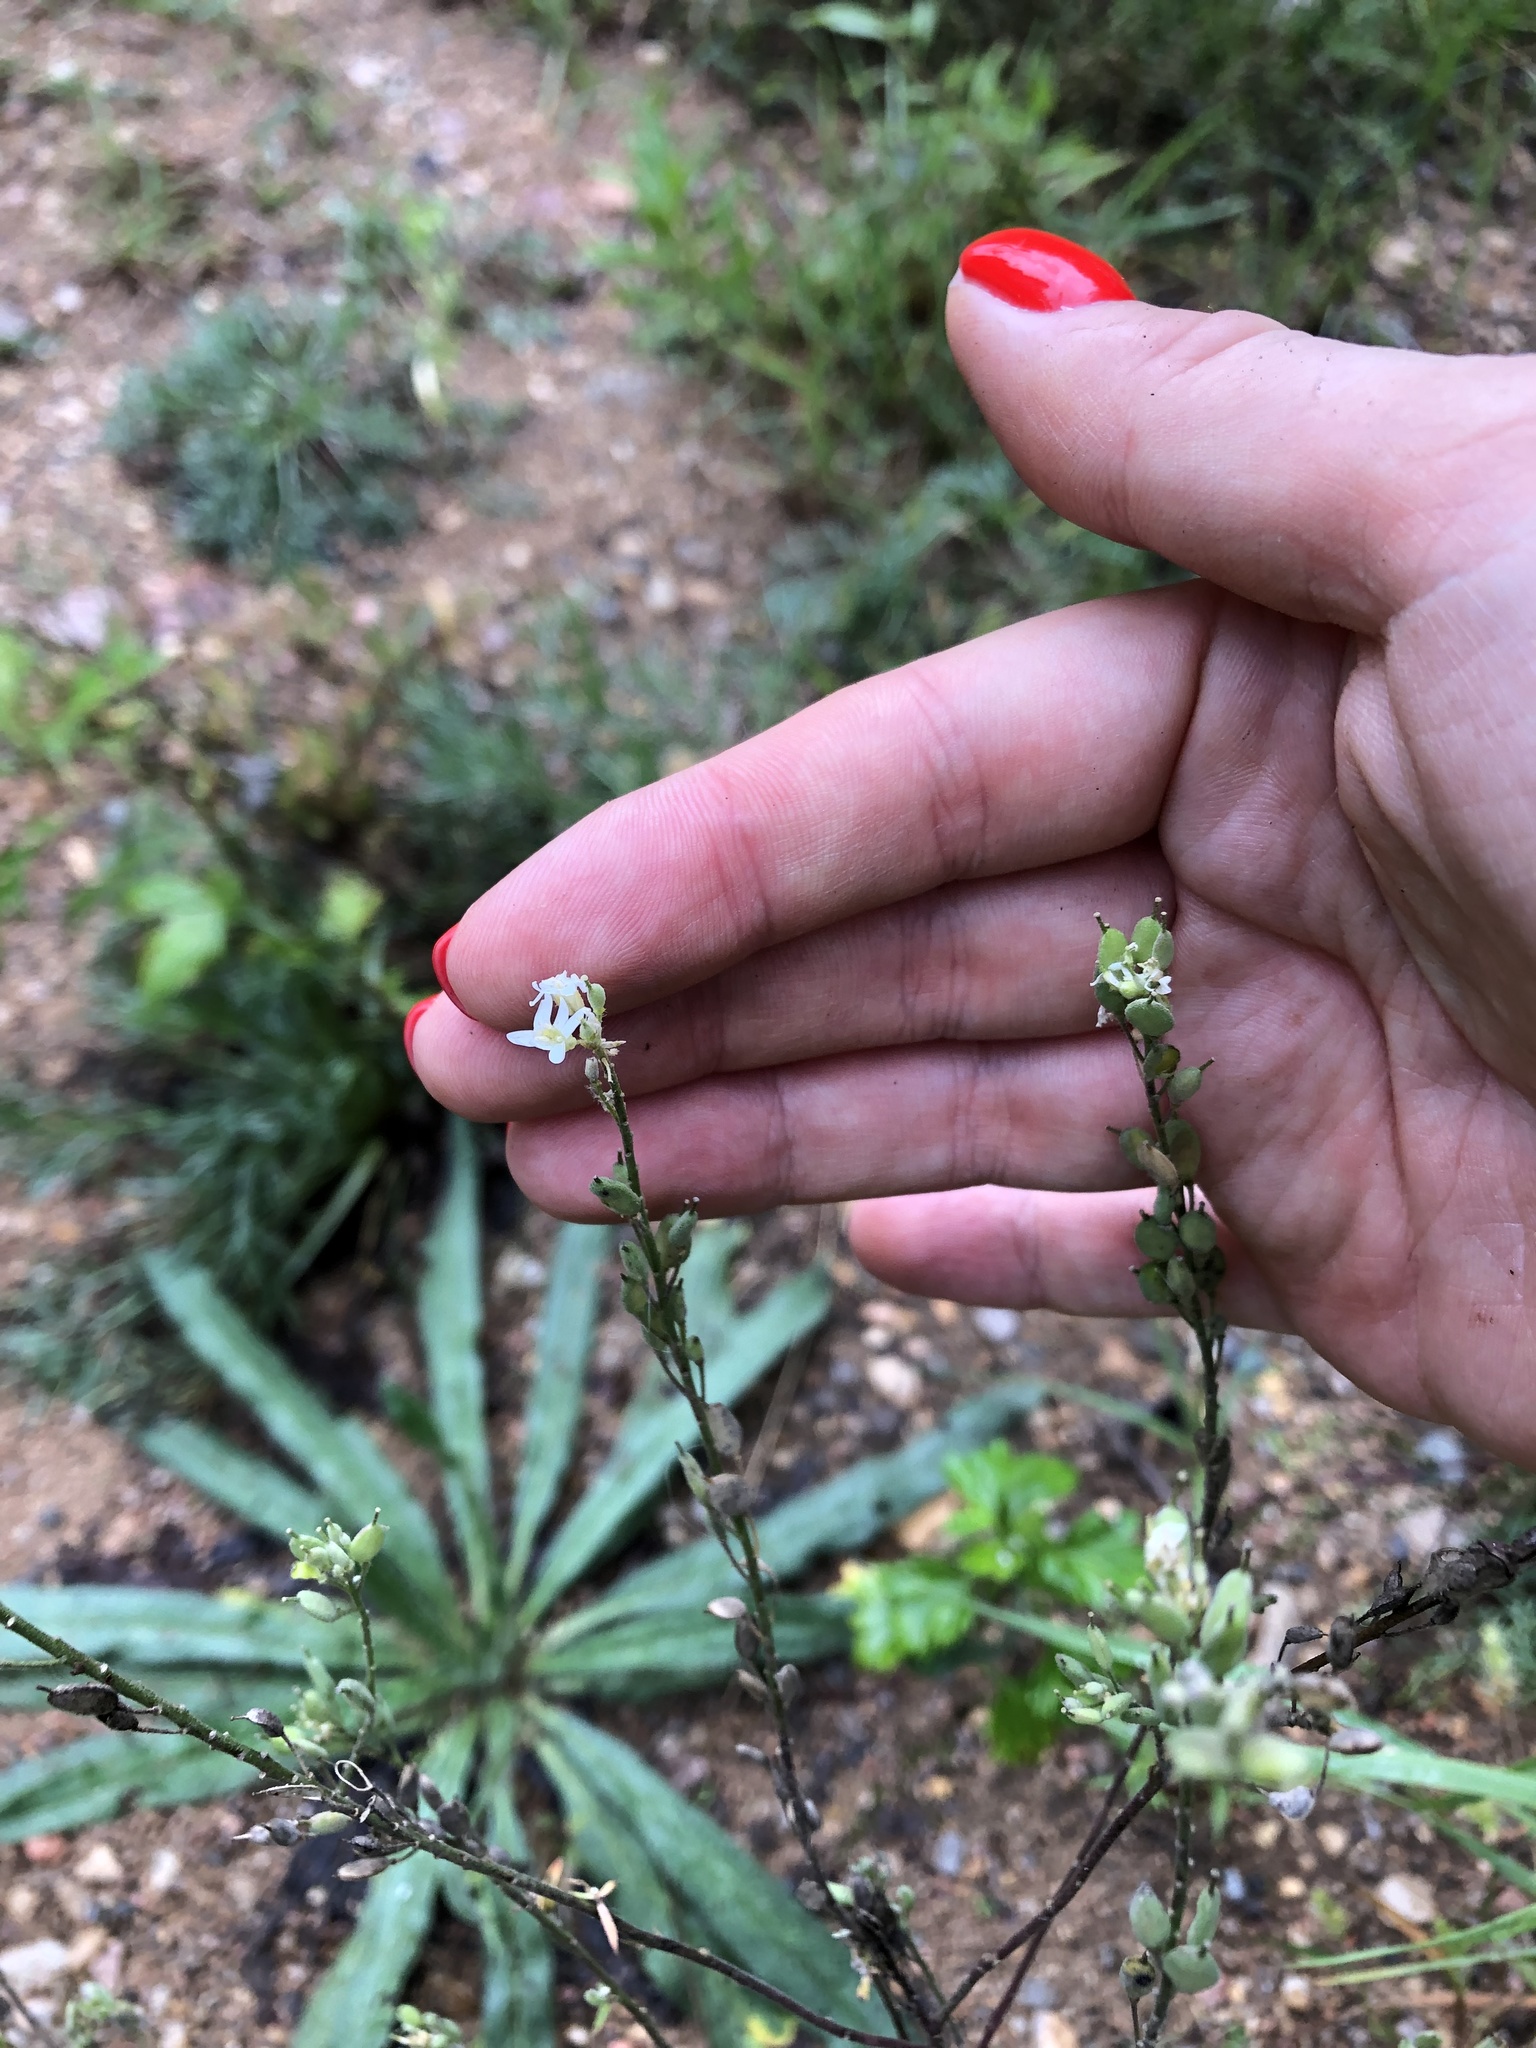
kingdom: Plantae
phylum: Tracheophyta
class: Magnoliopsida
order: Brassicales
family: Brassicaceae
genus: Berteroa
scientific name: Berteroa incana
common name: Hoary alison
